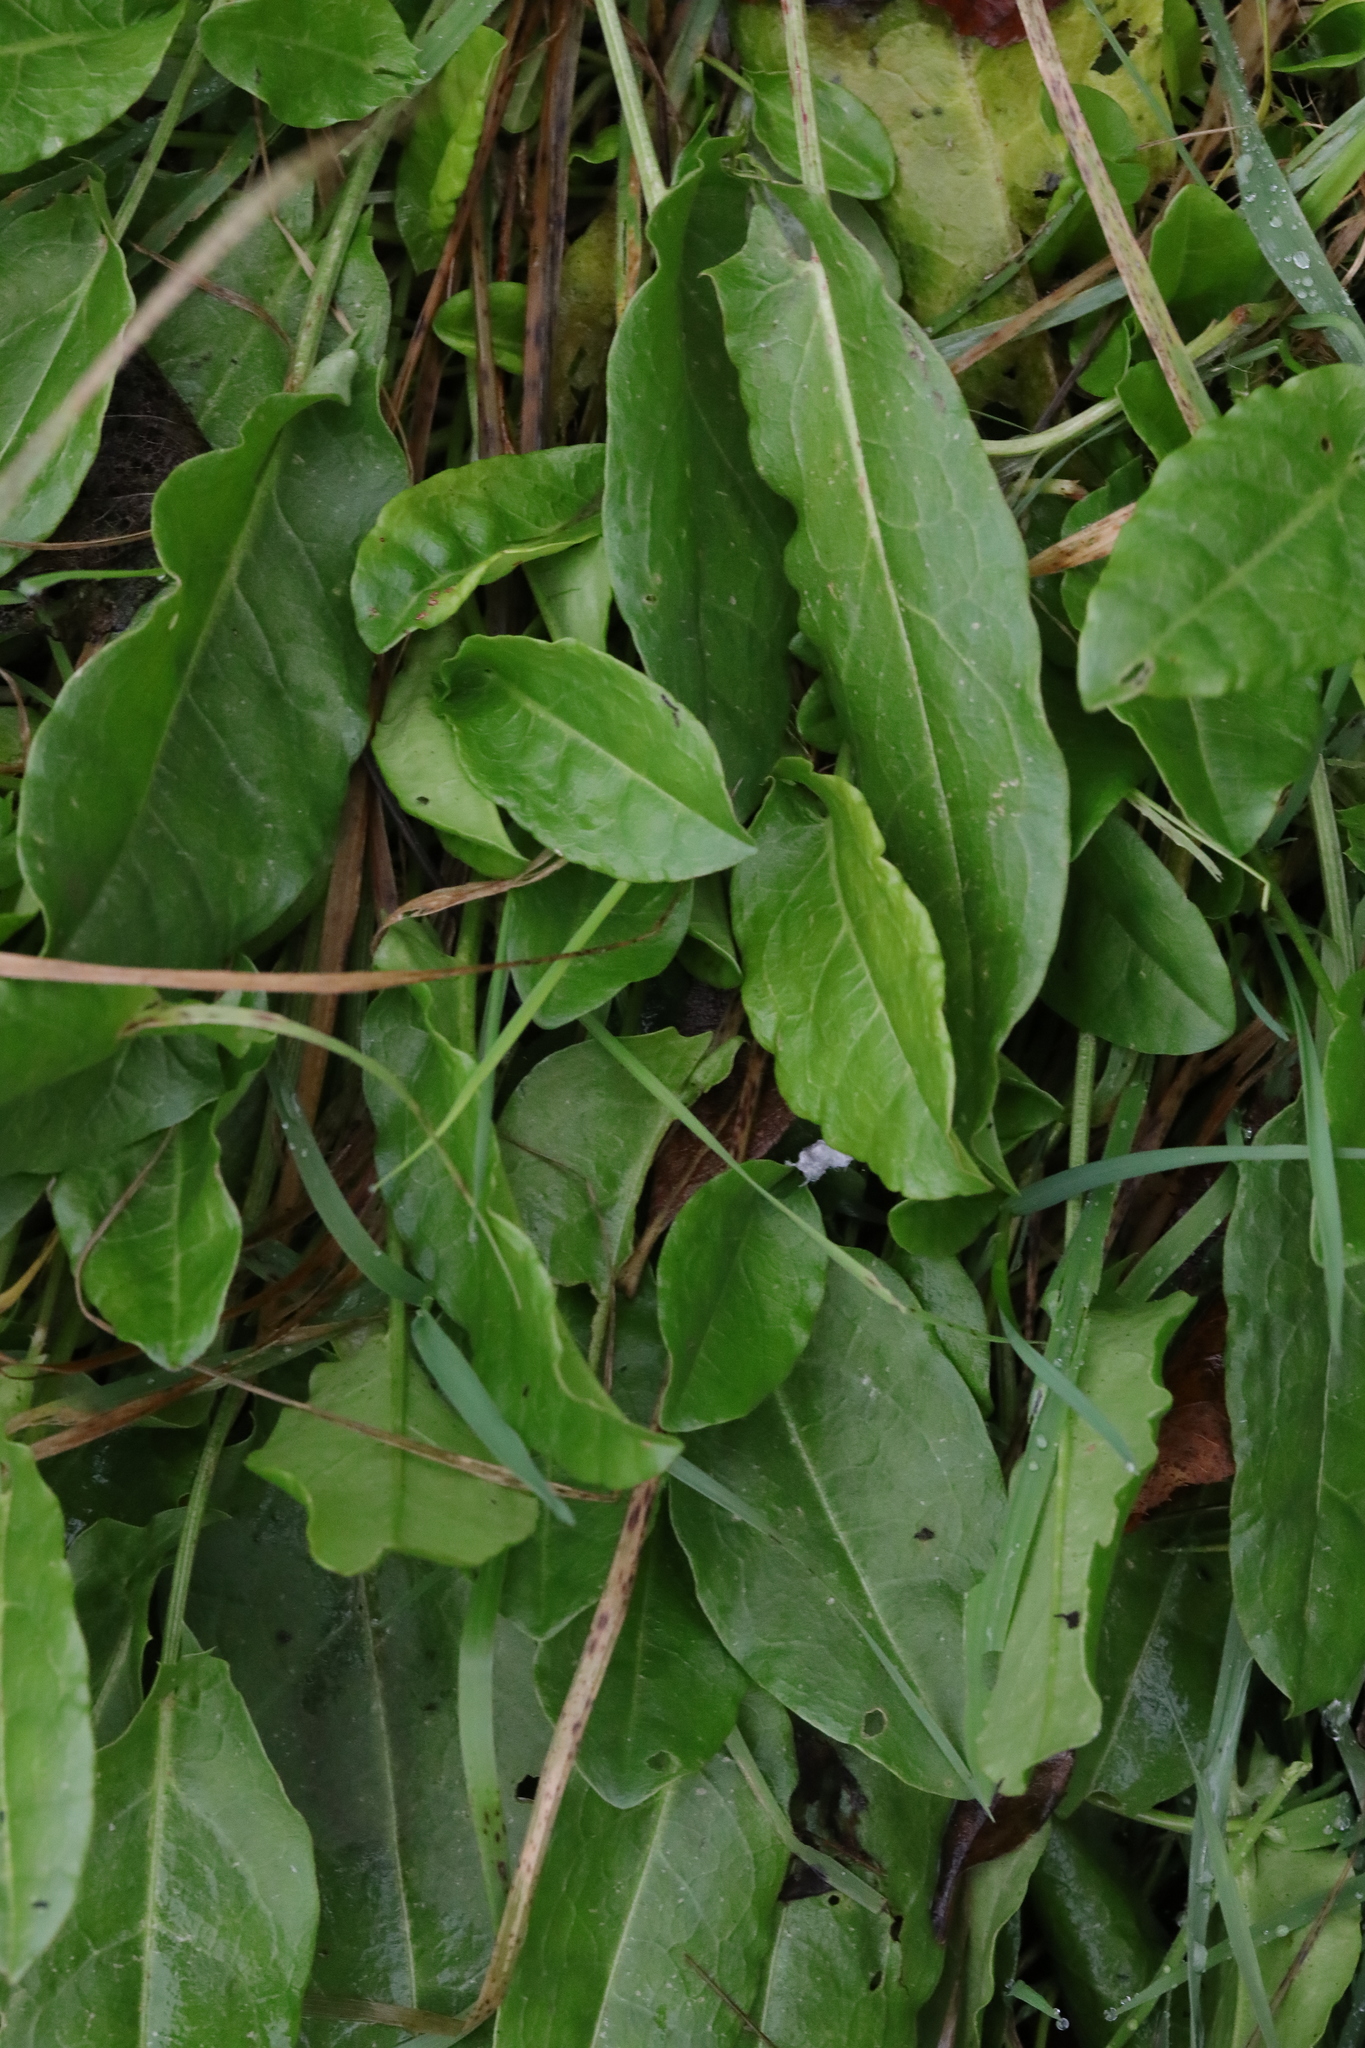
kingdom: Plantae
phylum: Tracheophyta
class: Magnoliopsida
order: Caryophyllales
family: Polygonaceae
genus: Rumex
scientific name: Rumex acetosa
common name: Garden sorrel
